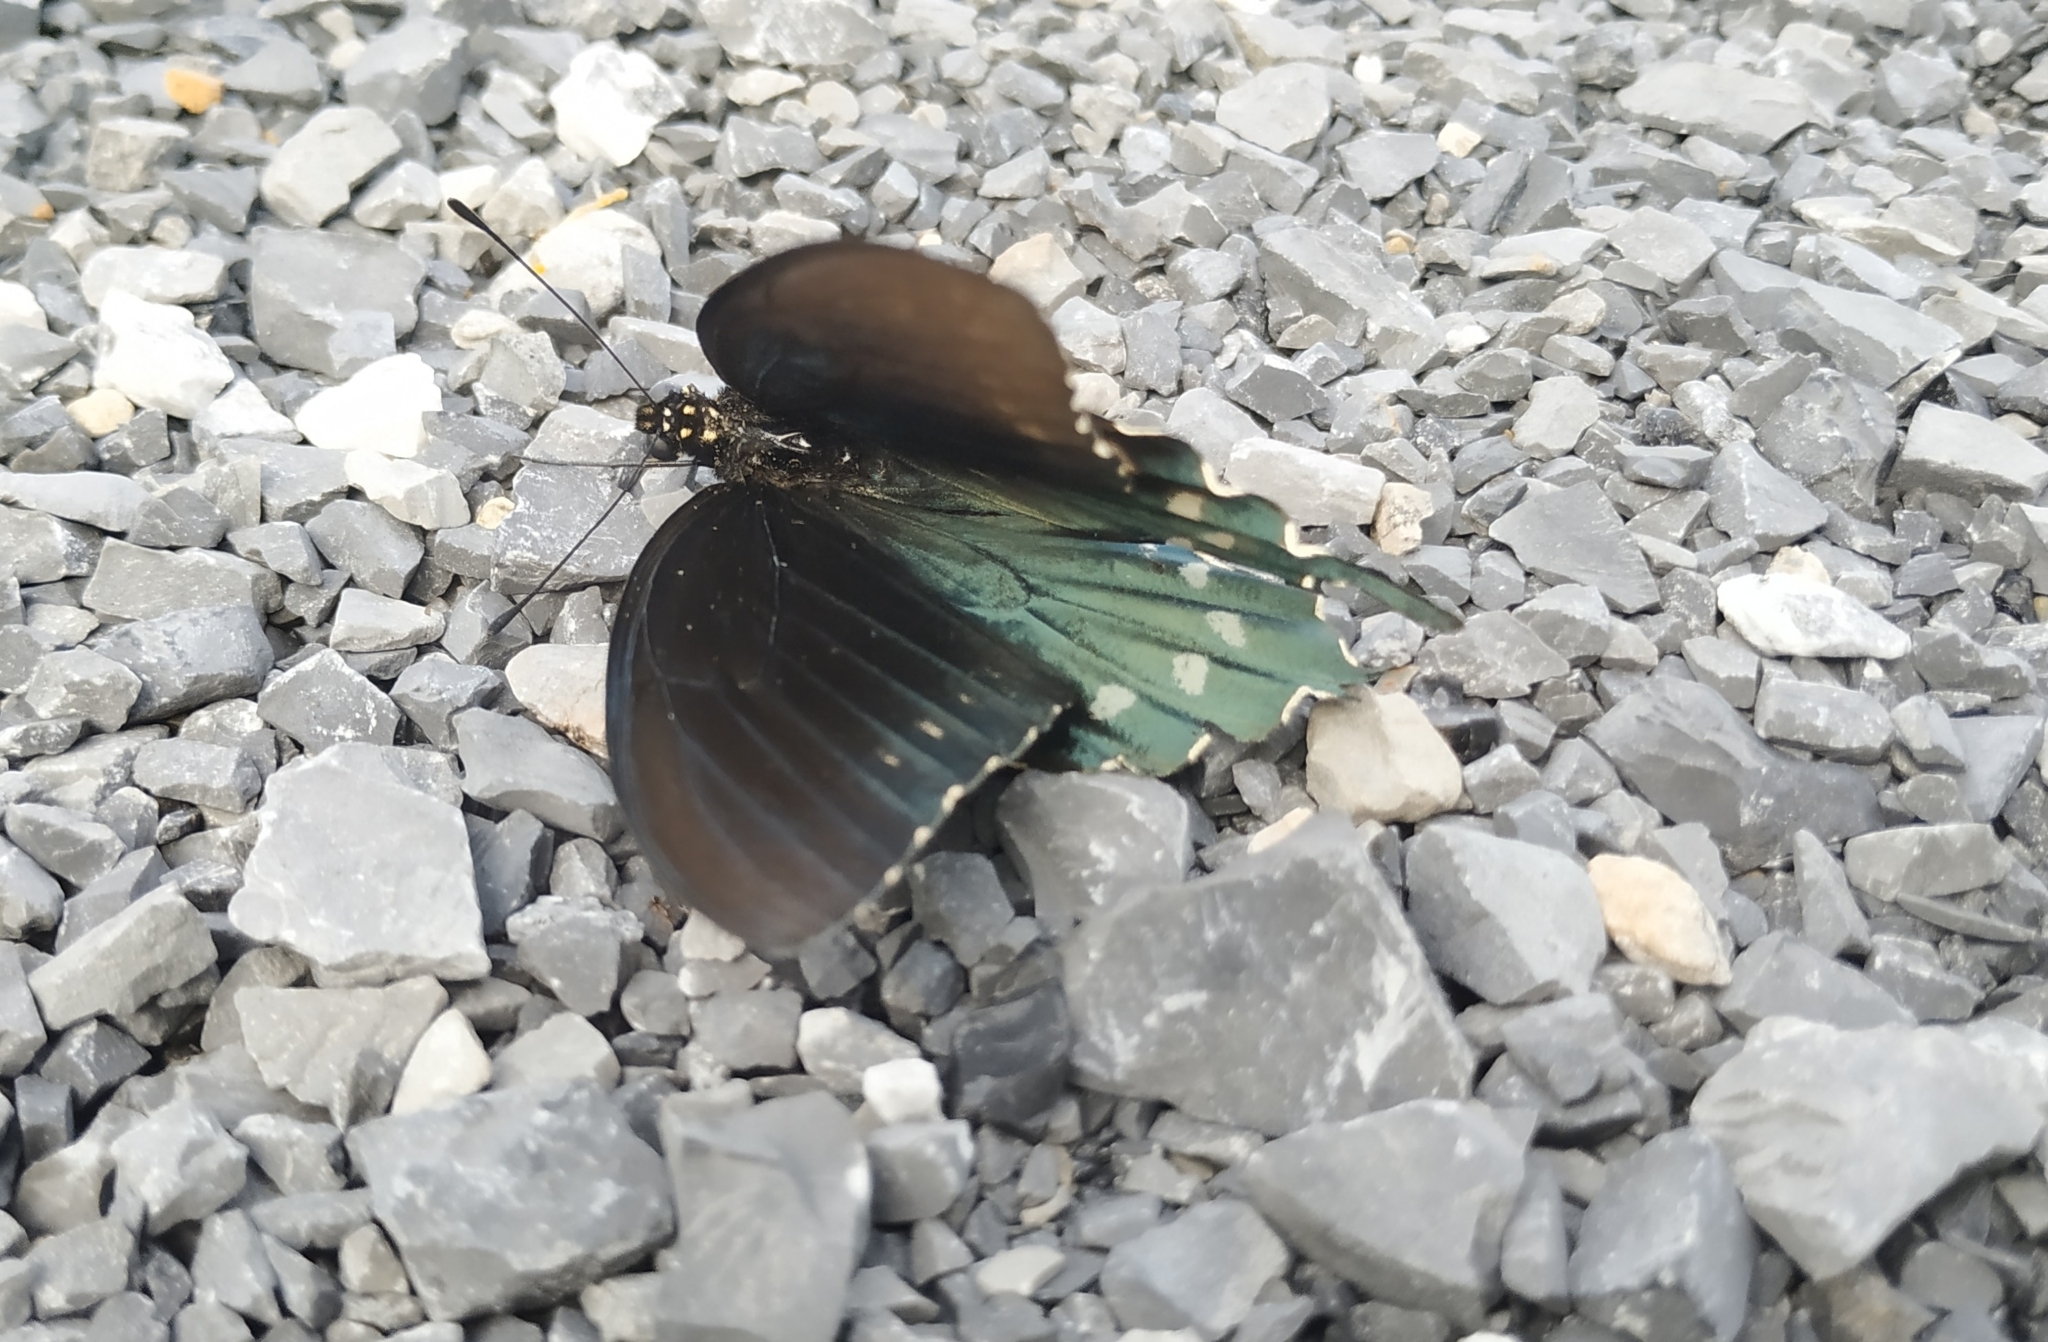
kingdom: Animalia
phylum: Arthropoda
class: Insecta
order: Lepidoptera
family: Papilionidae
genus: Battus
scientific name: Battus philenor
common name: Pipevine swallowtail
